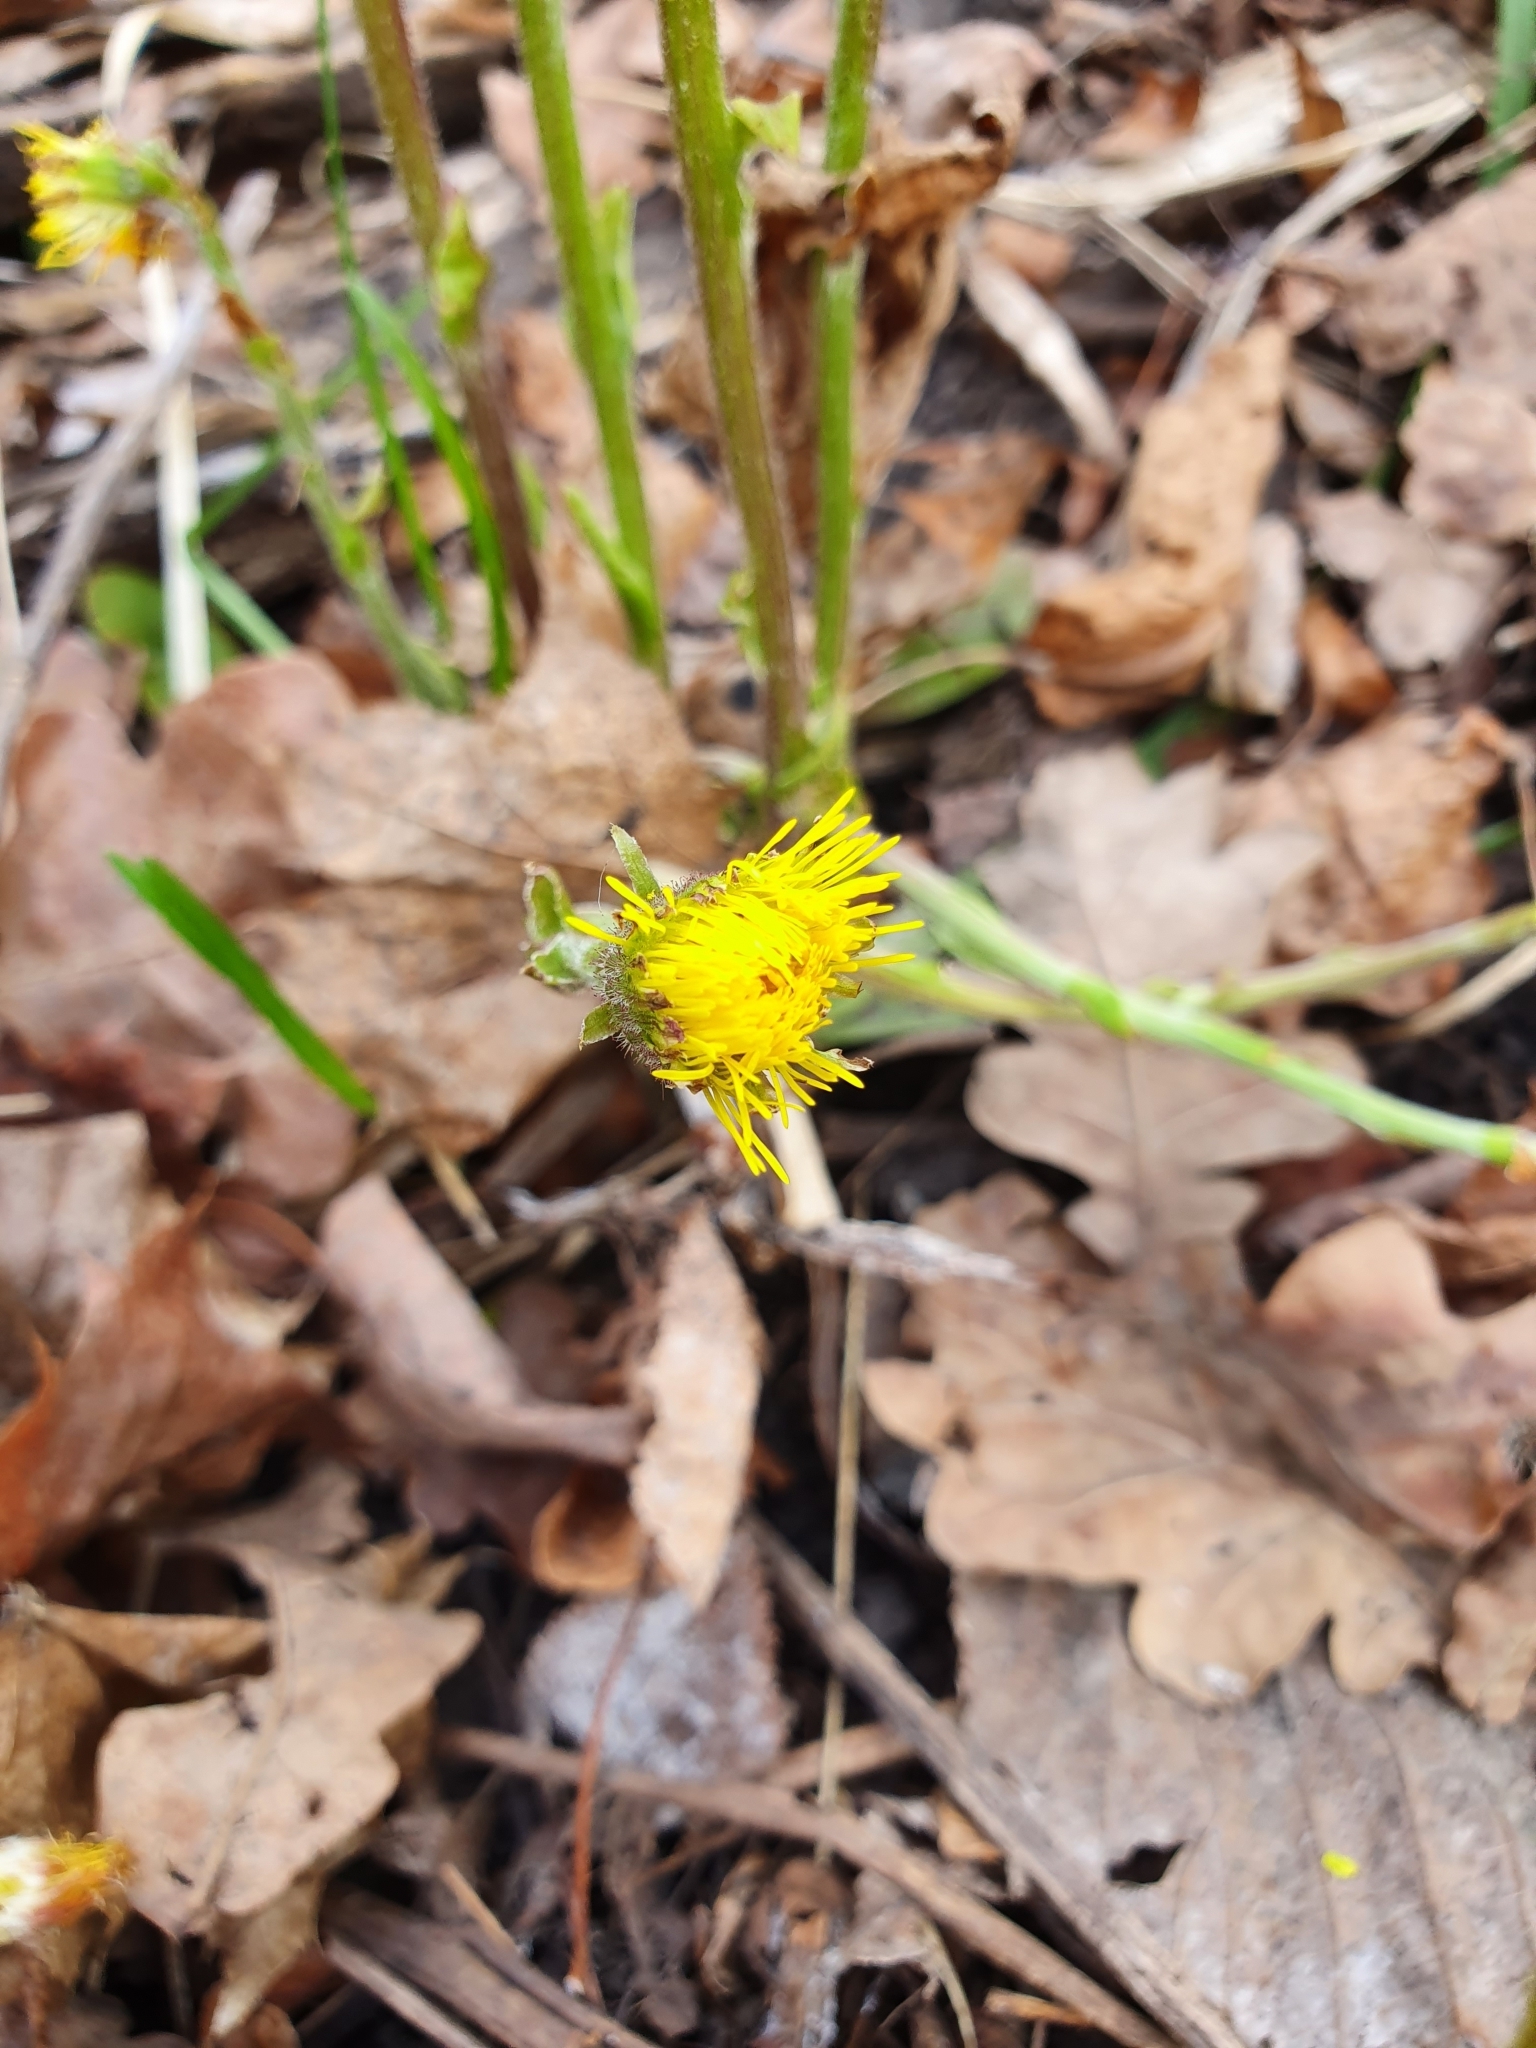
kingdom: Plantae
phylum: Tracheophyta
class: Magnoliopsida
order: Asterales
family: Asteraceae
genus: Tussilago
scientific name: Tussilago farfara
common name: Coltsfoot
